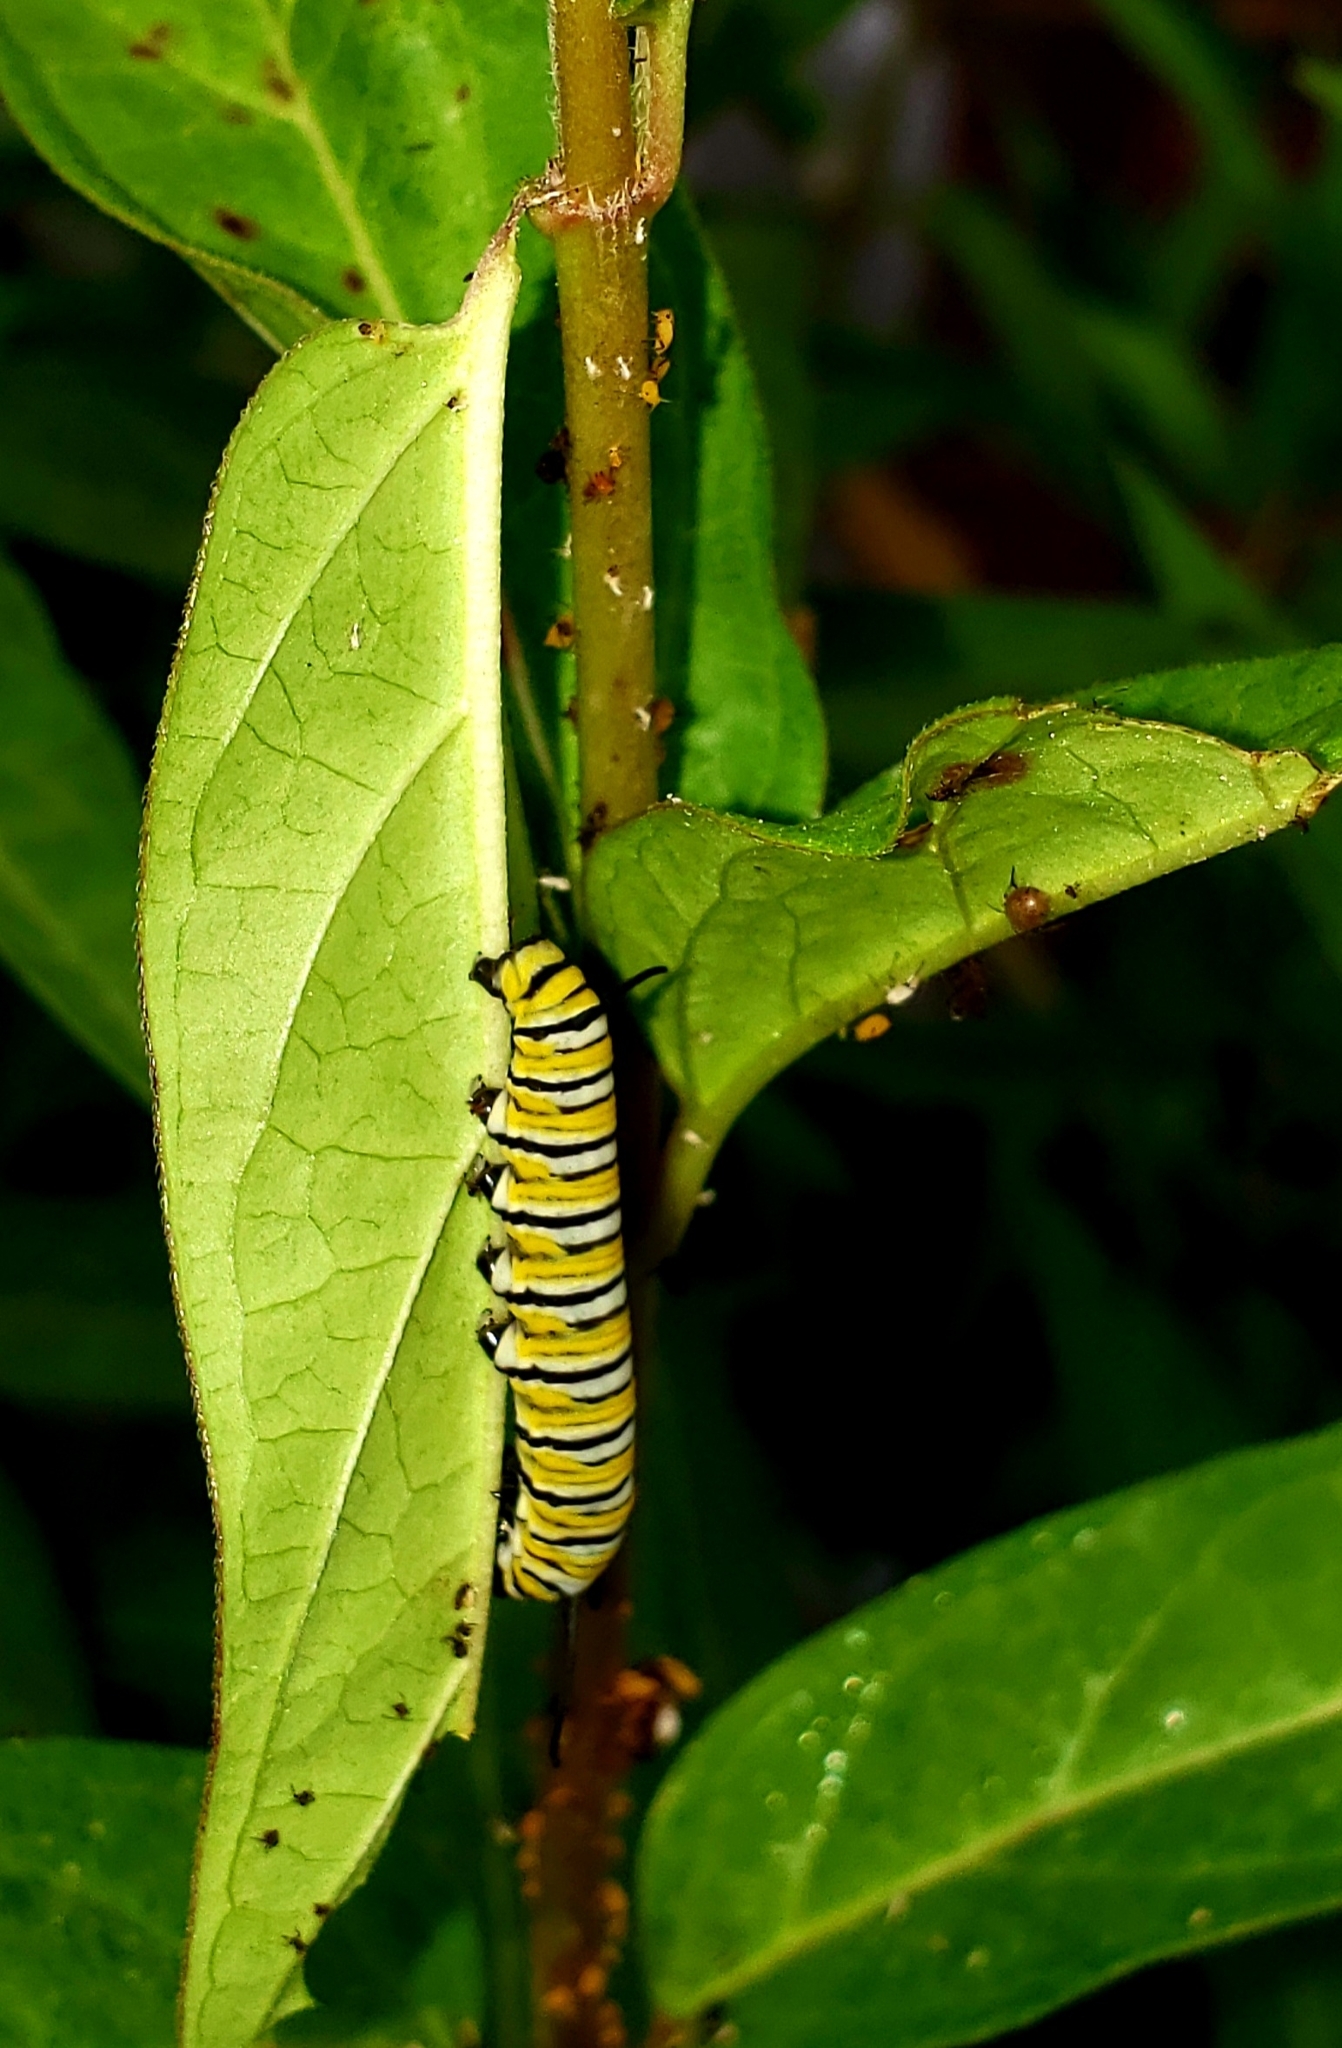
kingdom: Animalia
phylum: Arthropoda
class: Insecta
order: Lepidoptera
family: Nymphalidae
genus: Danaus
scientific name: Danaus plexippus
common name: Monarch
